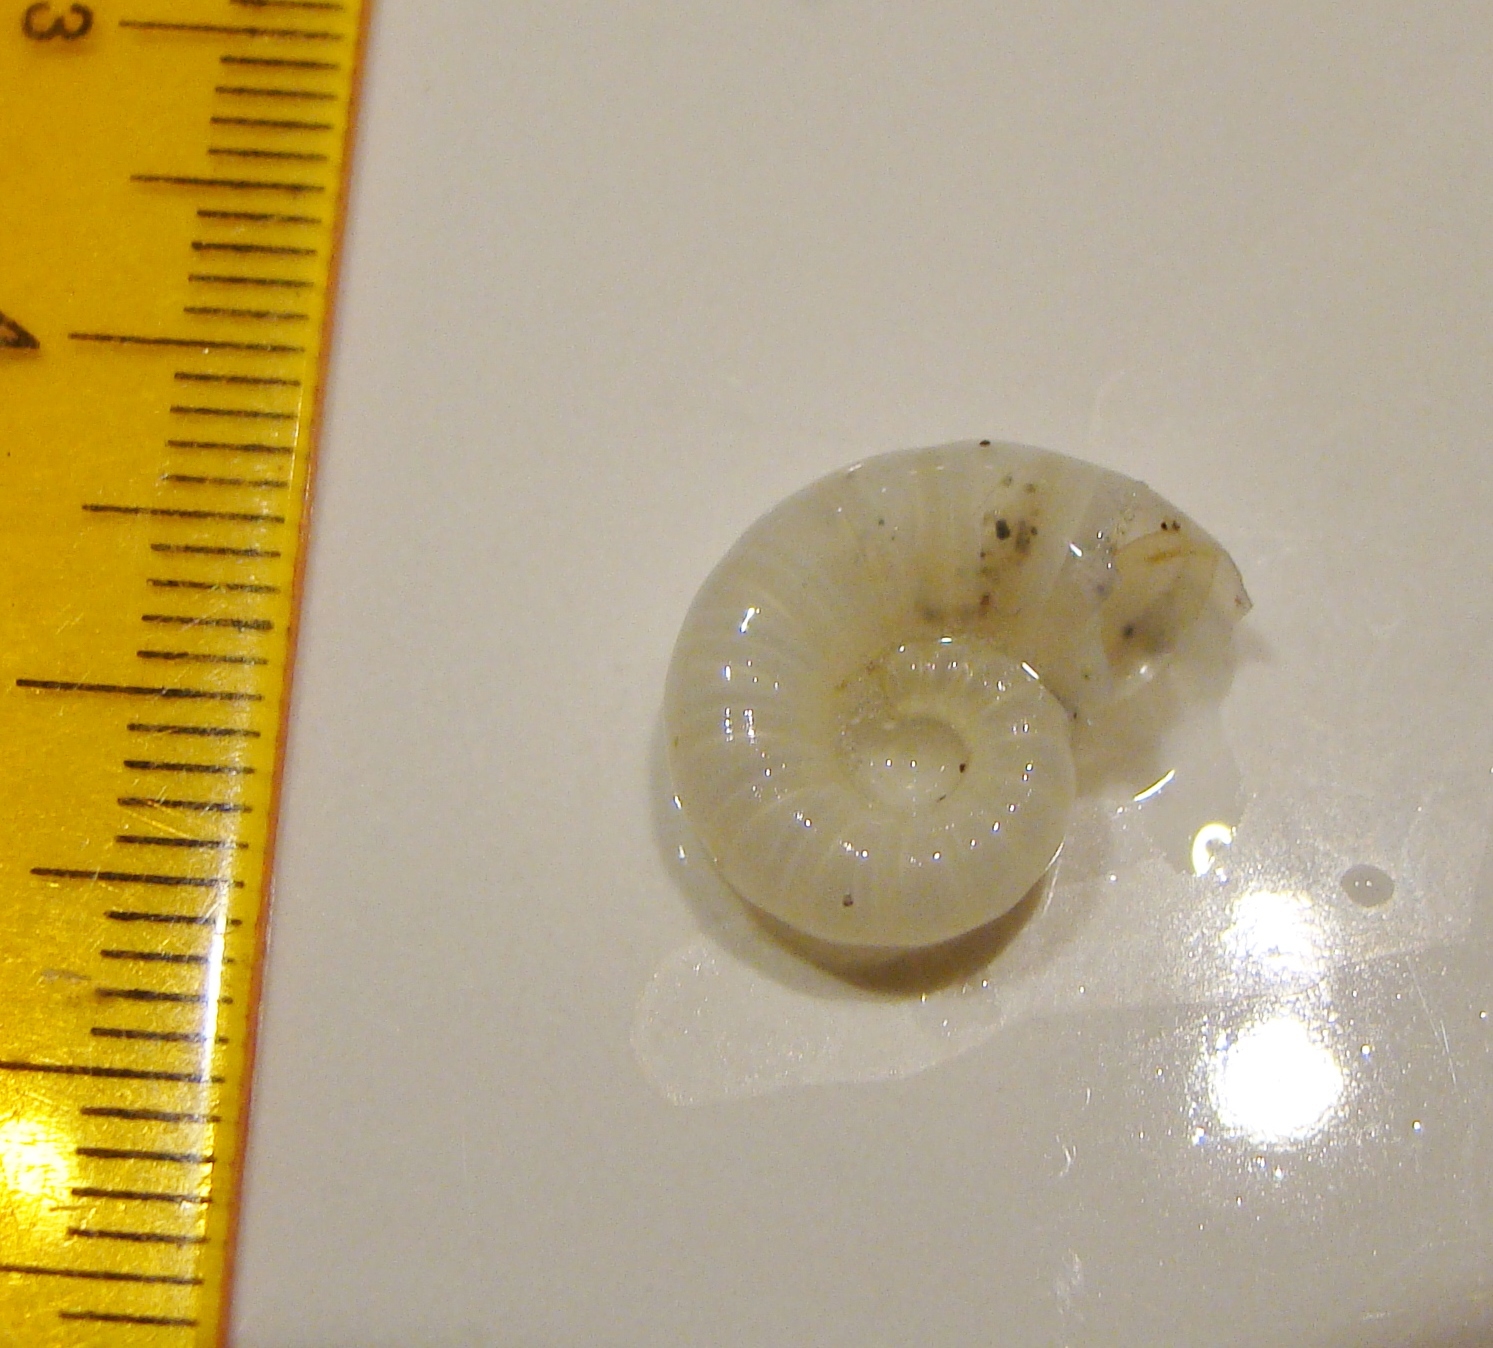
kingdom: Animalia
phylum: Mollusca
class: Cephalopoda
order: Spirulida
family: Spirulidae
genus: Spirula
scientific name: Spirula spirula
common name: Ram's horn squid
